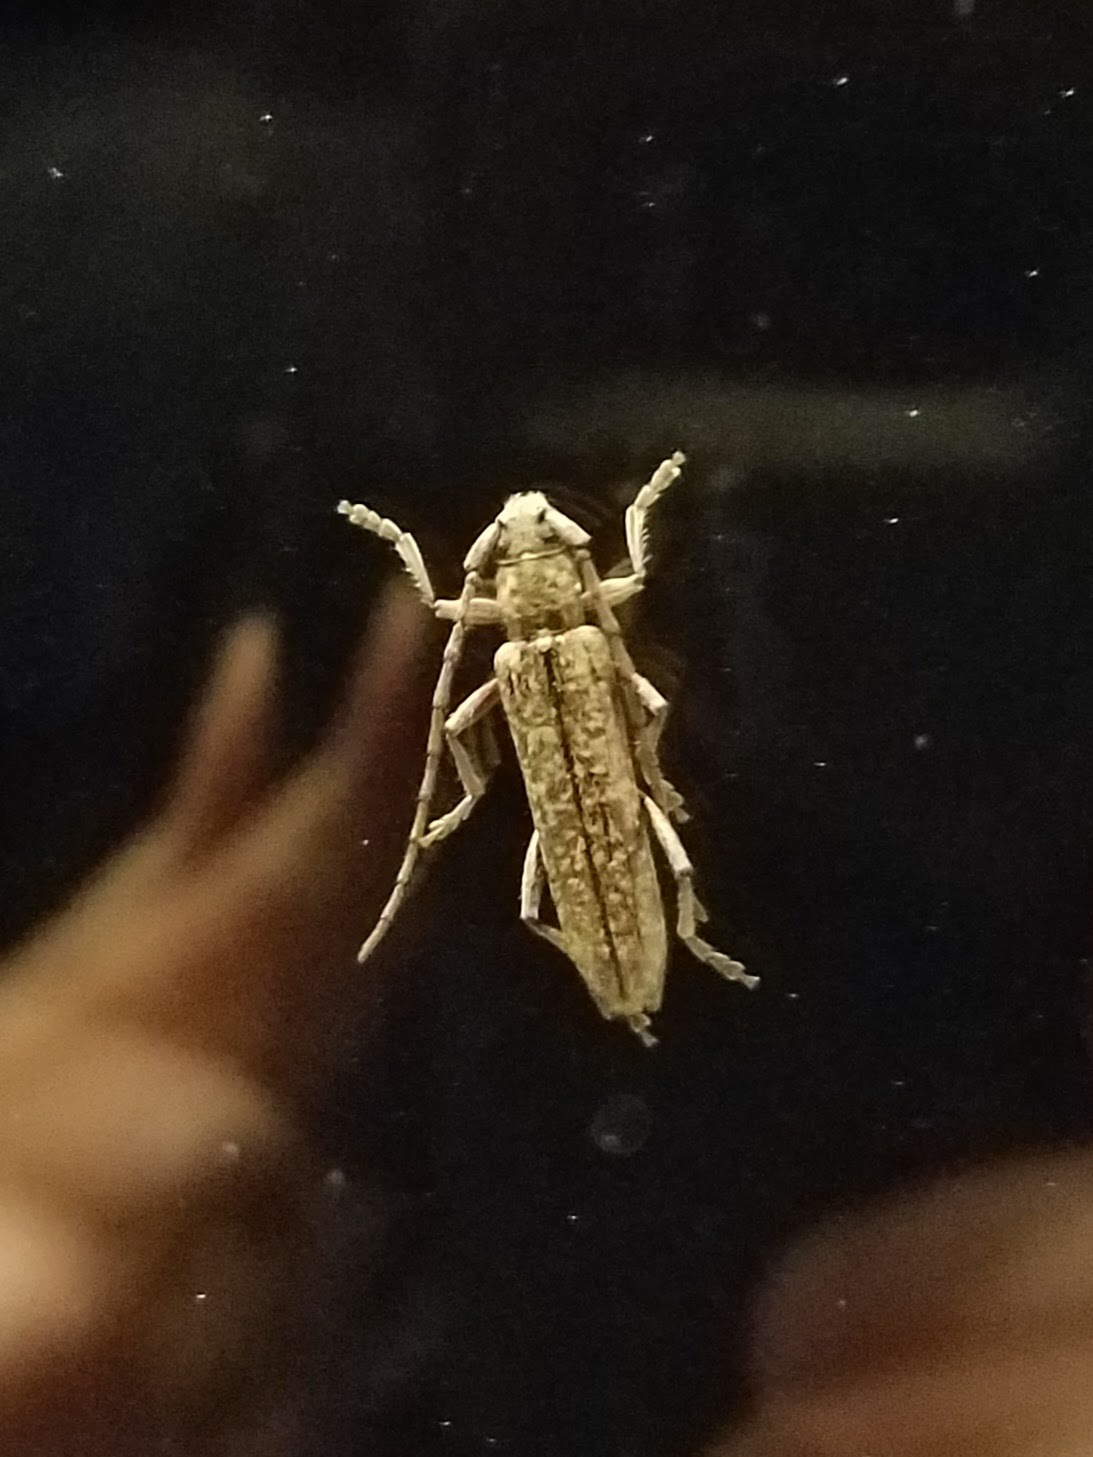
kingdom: Animalia
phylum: Arthropoda
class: Insecta
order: Coleoptera
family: Cerambycidae
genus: Anelaphus
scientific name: Anelaphus villosus
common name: Twig pruner
